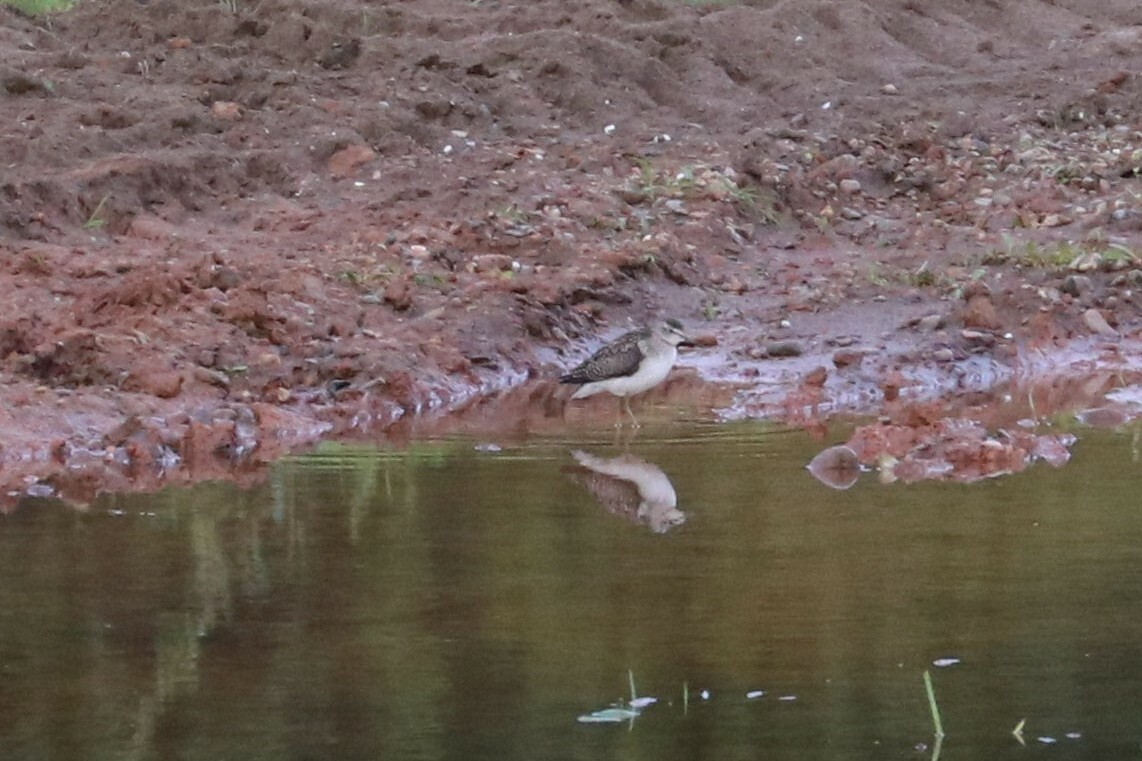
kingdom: Animalia
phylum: Chordata
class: Aves
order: Charadriiformes
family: Scolopacidae
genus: Tringa
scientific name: Tringa glareola
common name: Wood sandpiper
